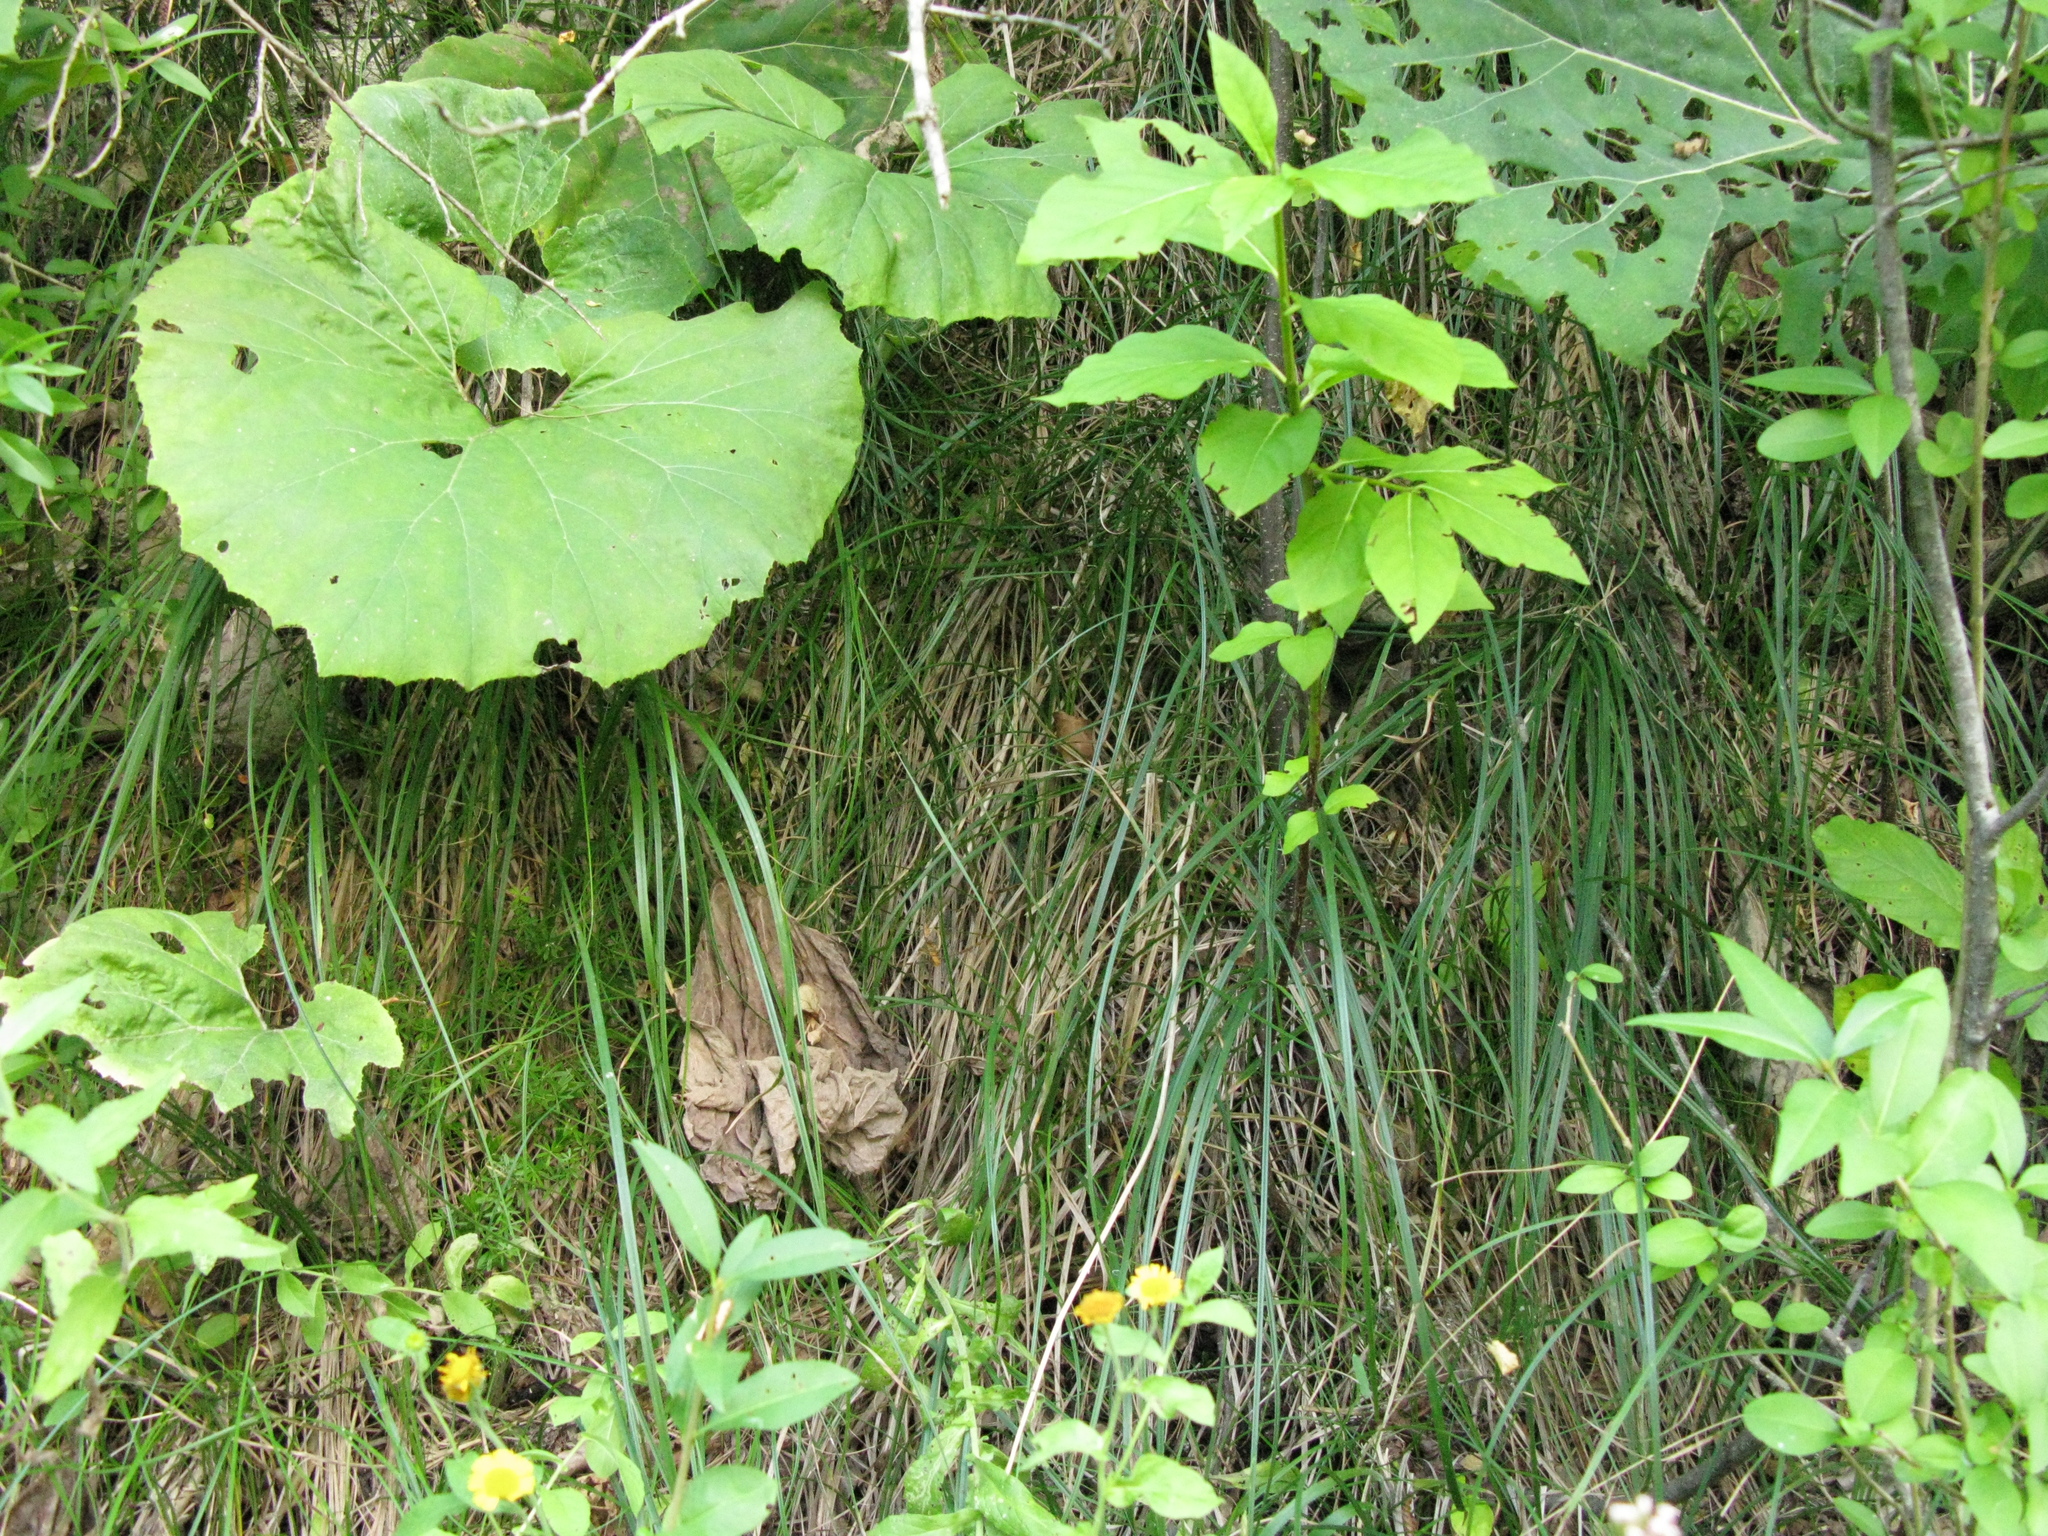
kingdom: Plantae
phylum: Tracheophyta
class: Magnoliopsida
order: Celastrales
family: Celastraceae
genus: Euonymus
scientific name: Euonymus latifolius
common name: Large-leaved spindle
